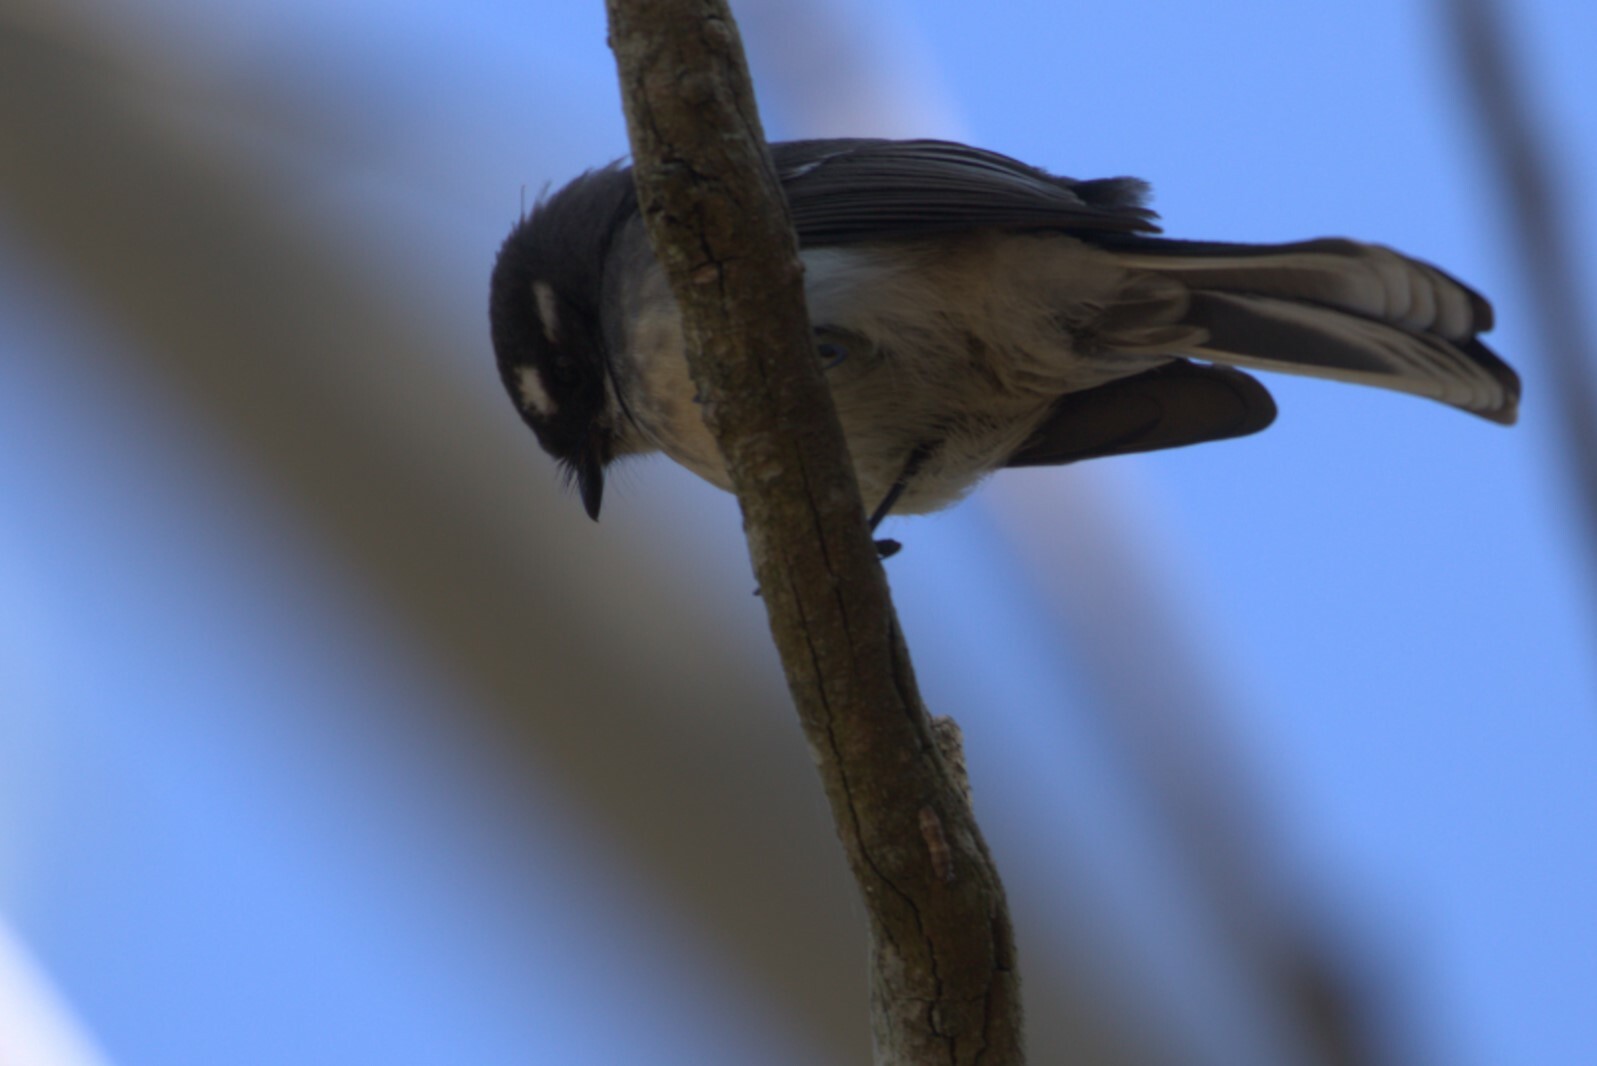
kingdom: Animalia
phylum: Chordata
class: Aves
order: Passeriformes
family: Rhipiduridae
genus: Rhipidura
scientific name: Rhipidura albiscapa
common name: Grey fantail
